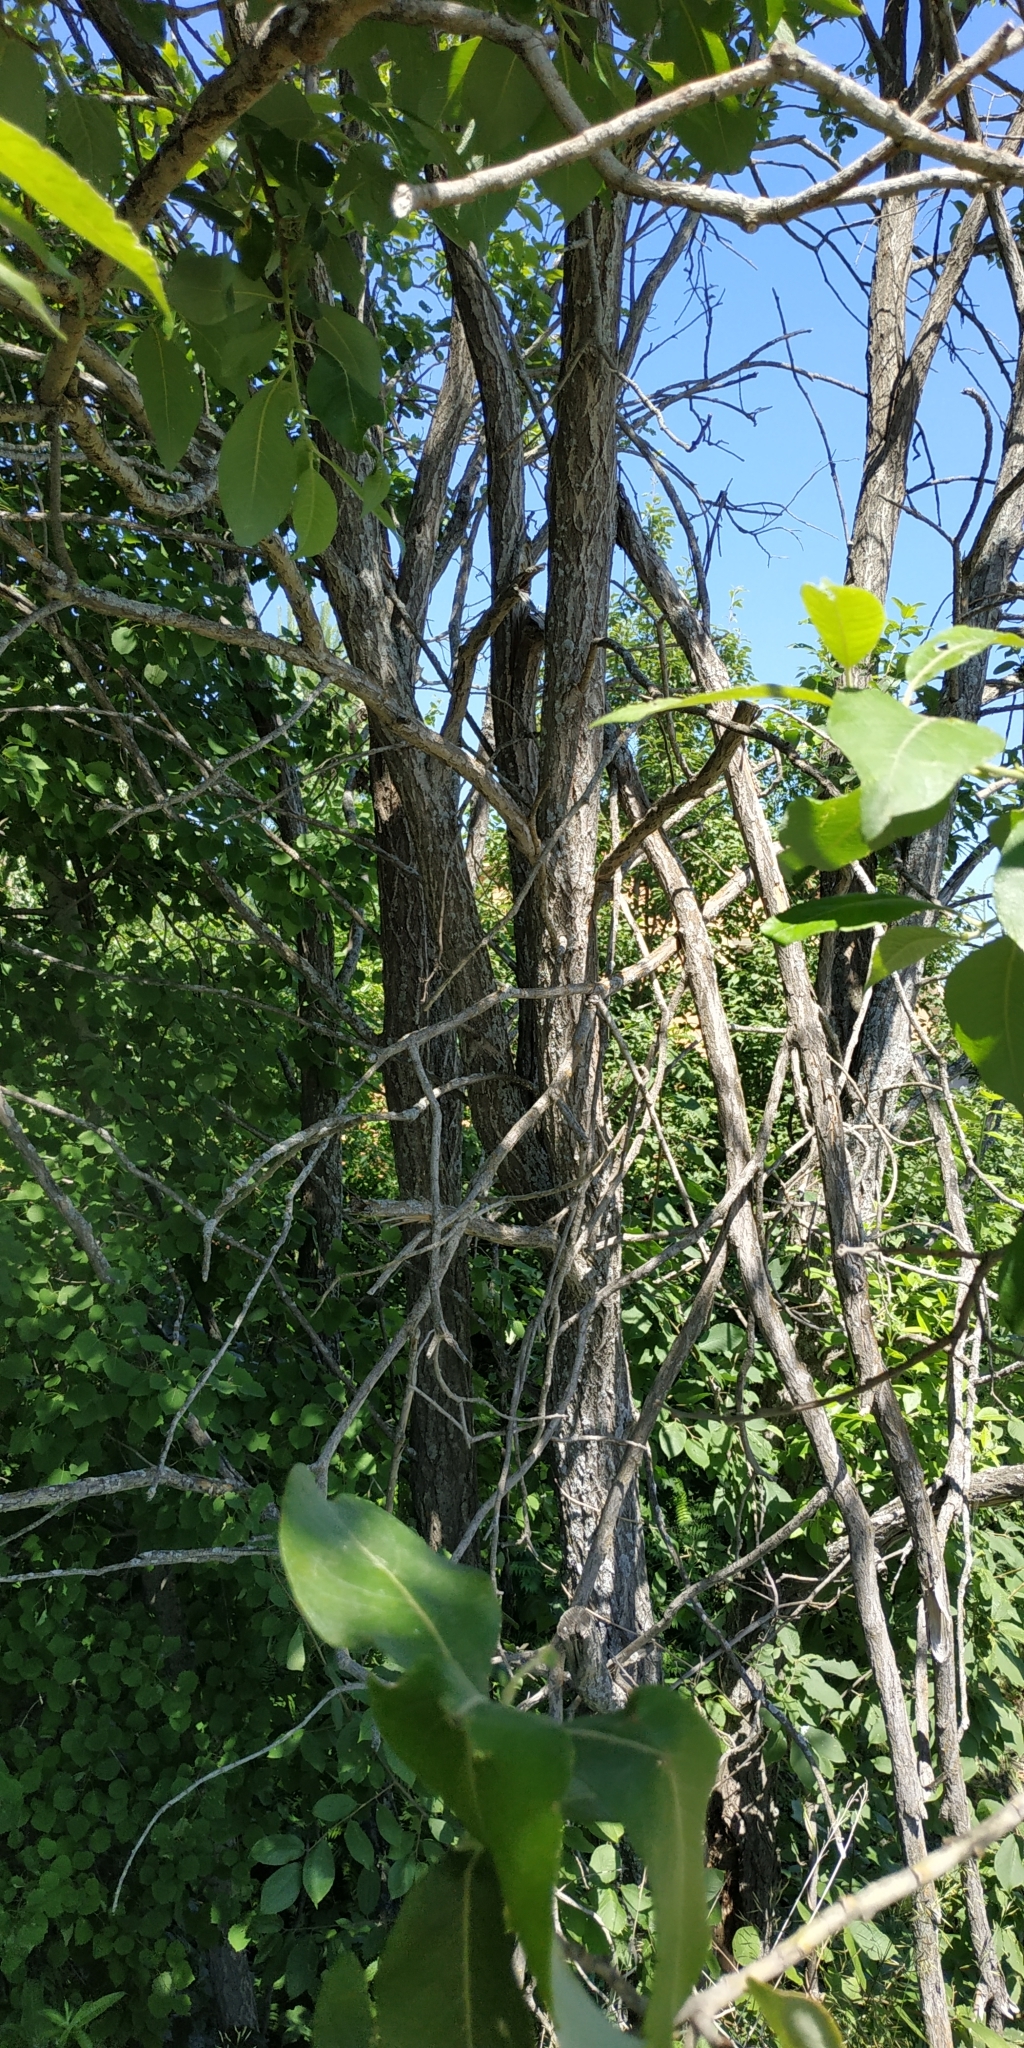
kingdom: Plantae
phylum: Tracheophyta
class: Magnoliopsida
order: Malpighiales
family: Salicaceae
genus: Salix
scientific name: Salix caprea
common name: Goat willow
